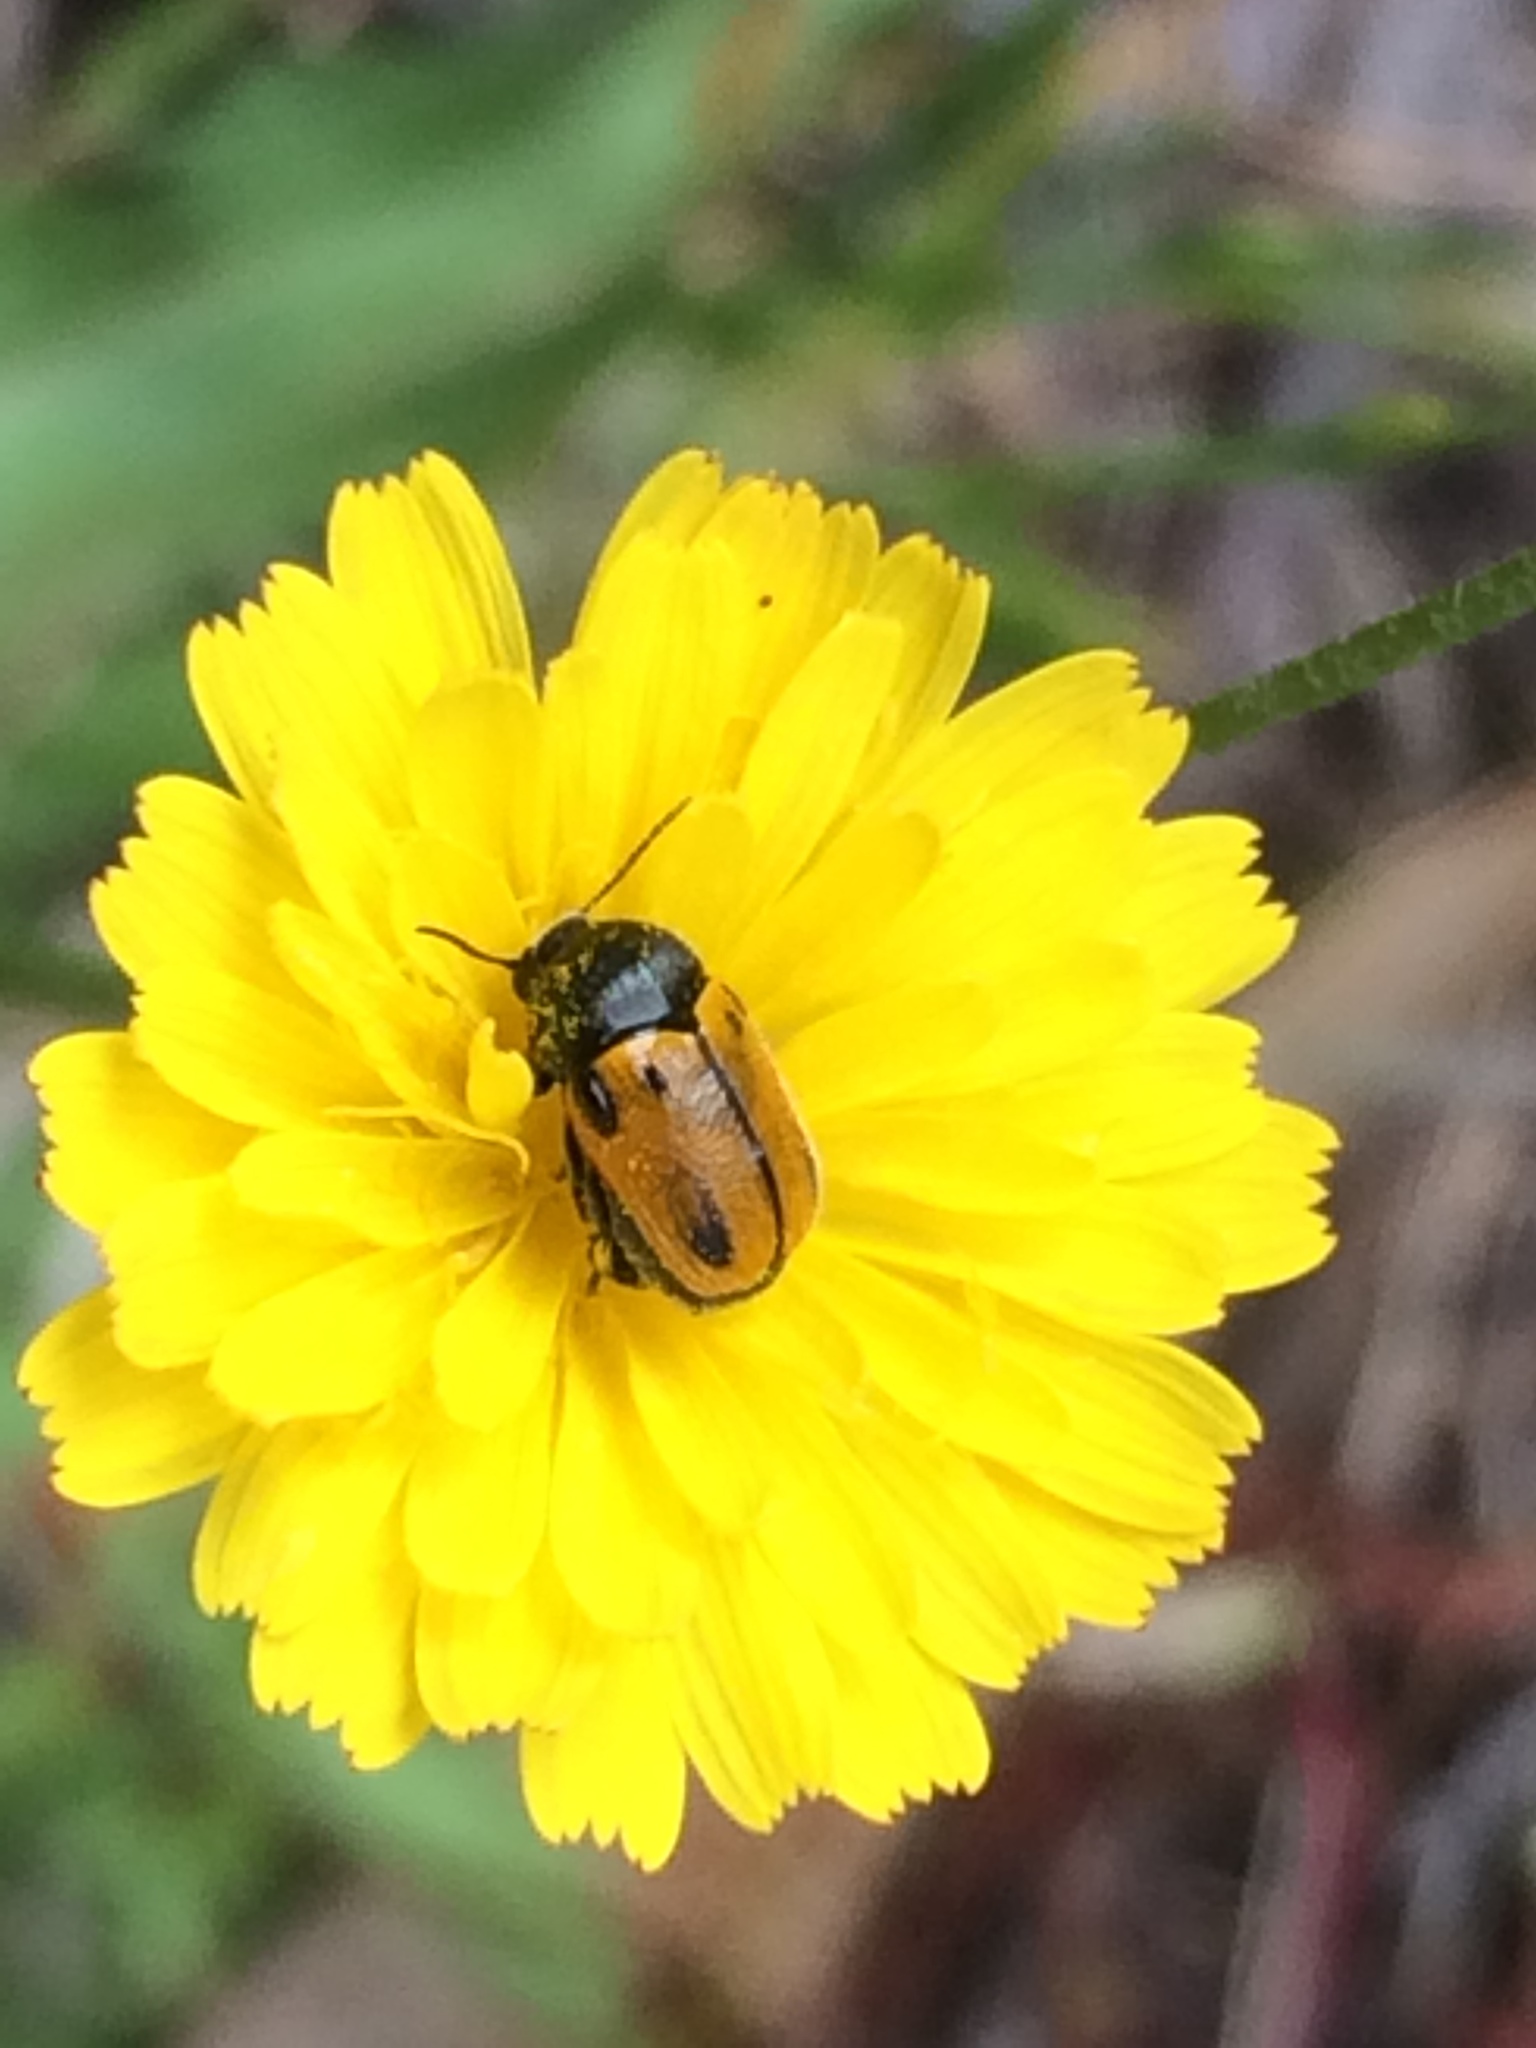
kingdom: Animalia
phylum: Arthropoda
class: Insecta
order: Coleoptera
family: Chrysomelidae
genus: Cryptocephalus
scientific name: Cryptocephalus rugicollis
